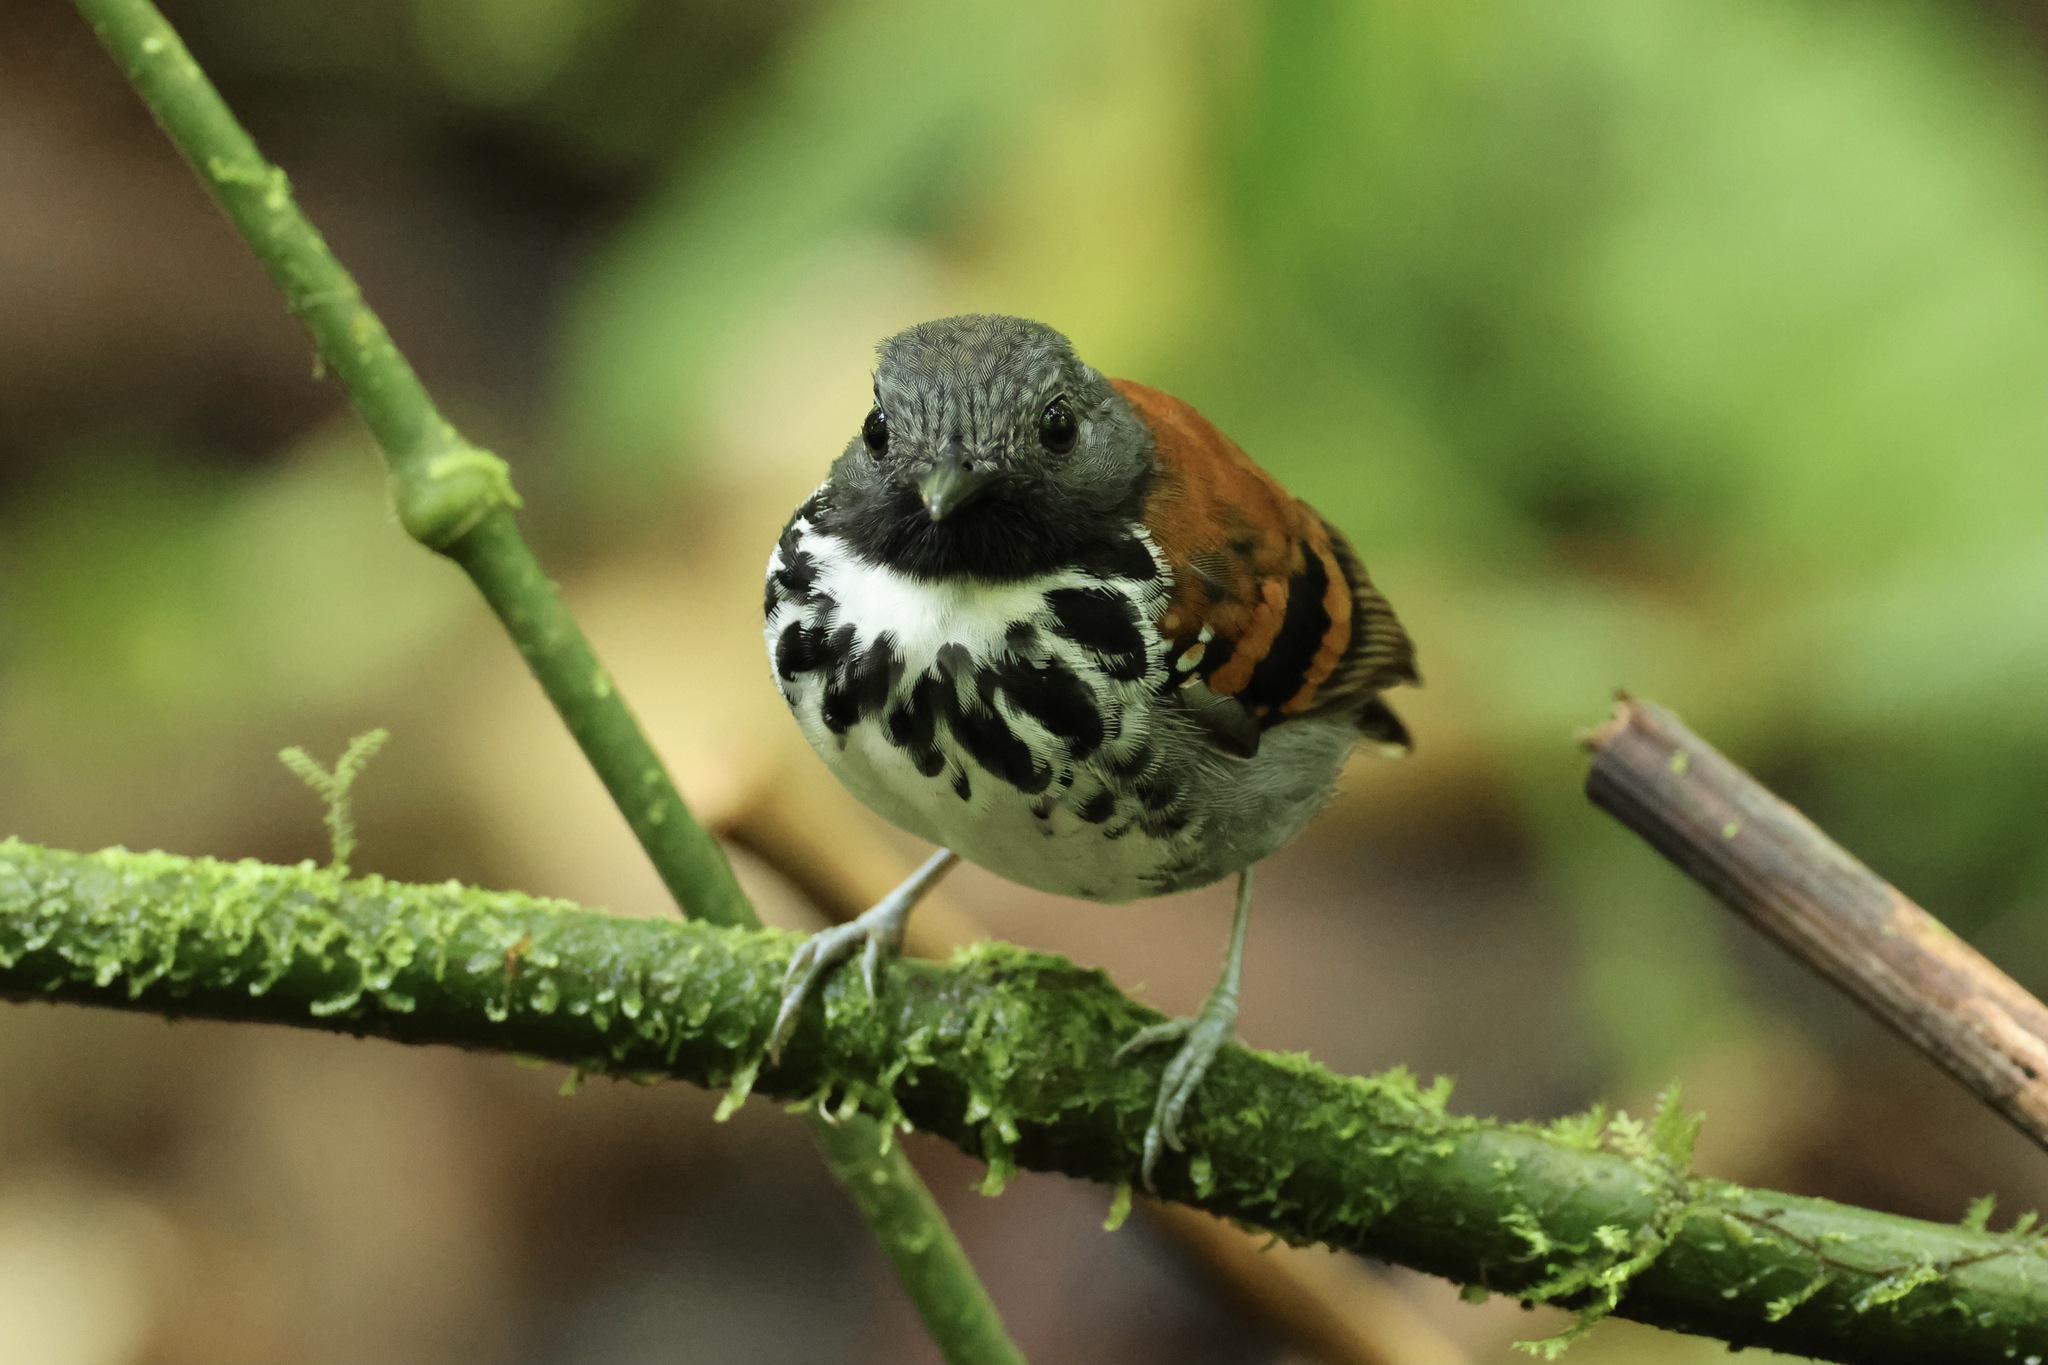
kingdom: Animalia
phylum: Chordata
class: Aves
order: Passeriformes
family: Thamnophilidae
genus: Hylophylax
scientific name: Hylophylax naevioides
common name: Spotted antbird
